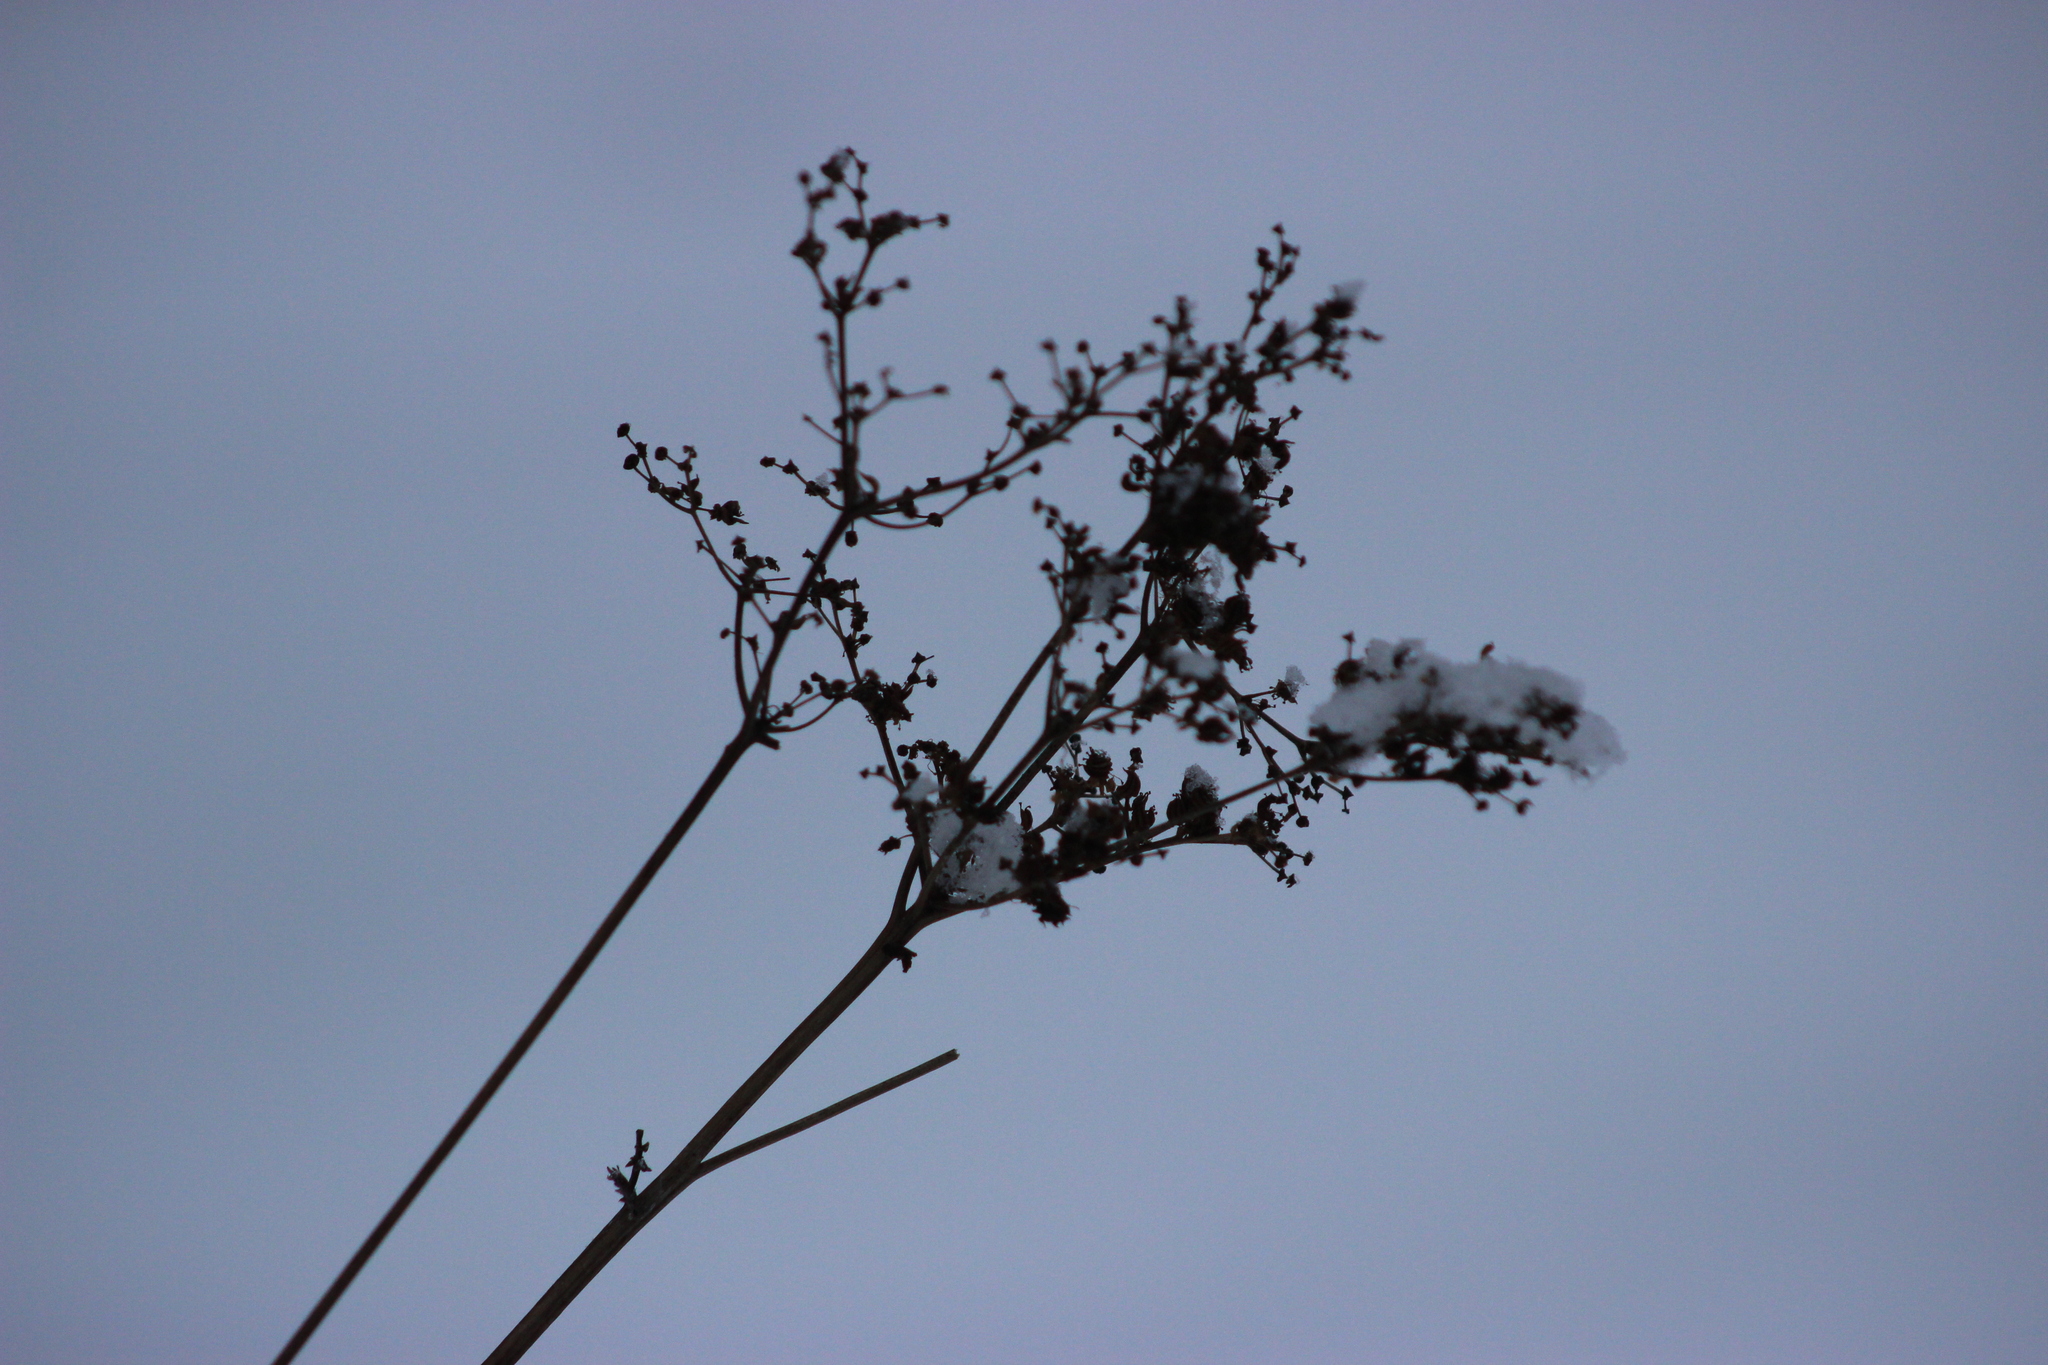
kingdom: Plantae
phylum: Tracheophyta
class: Magnoliopsida
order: Rosales
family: Rosaceae
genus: Filipendula
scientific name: Filipendula ulmaria
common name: Meadowsweet
